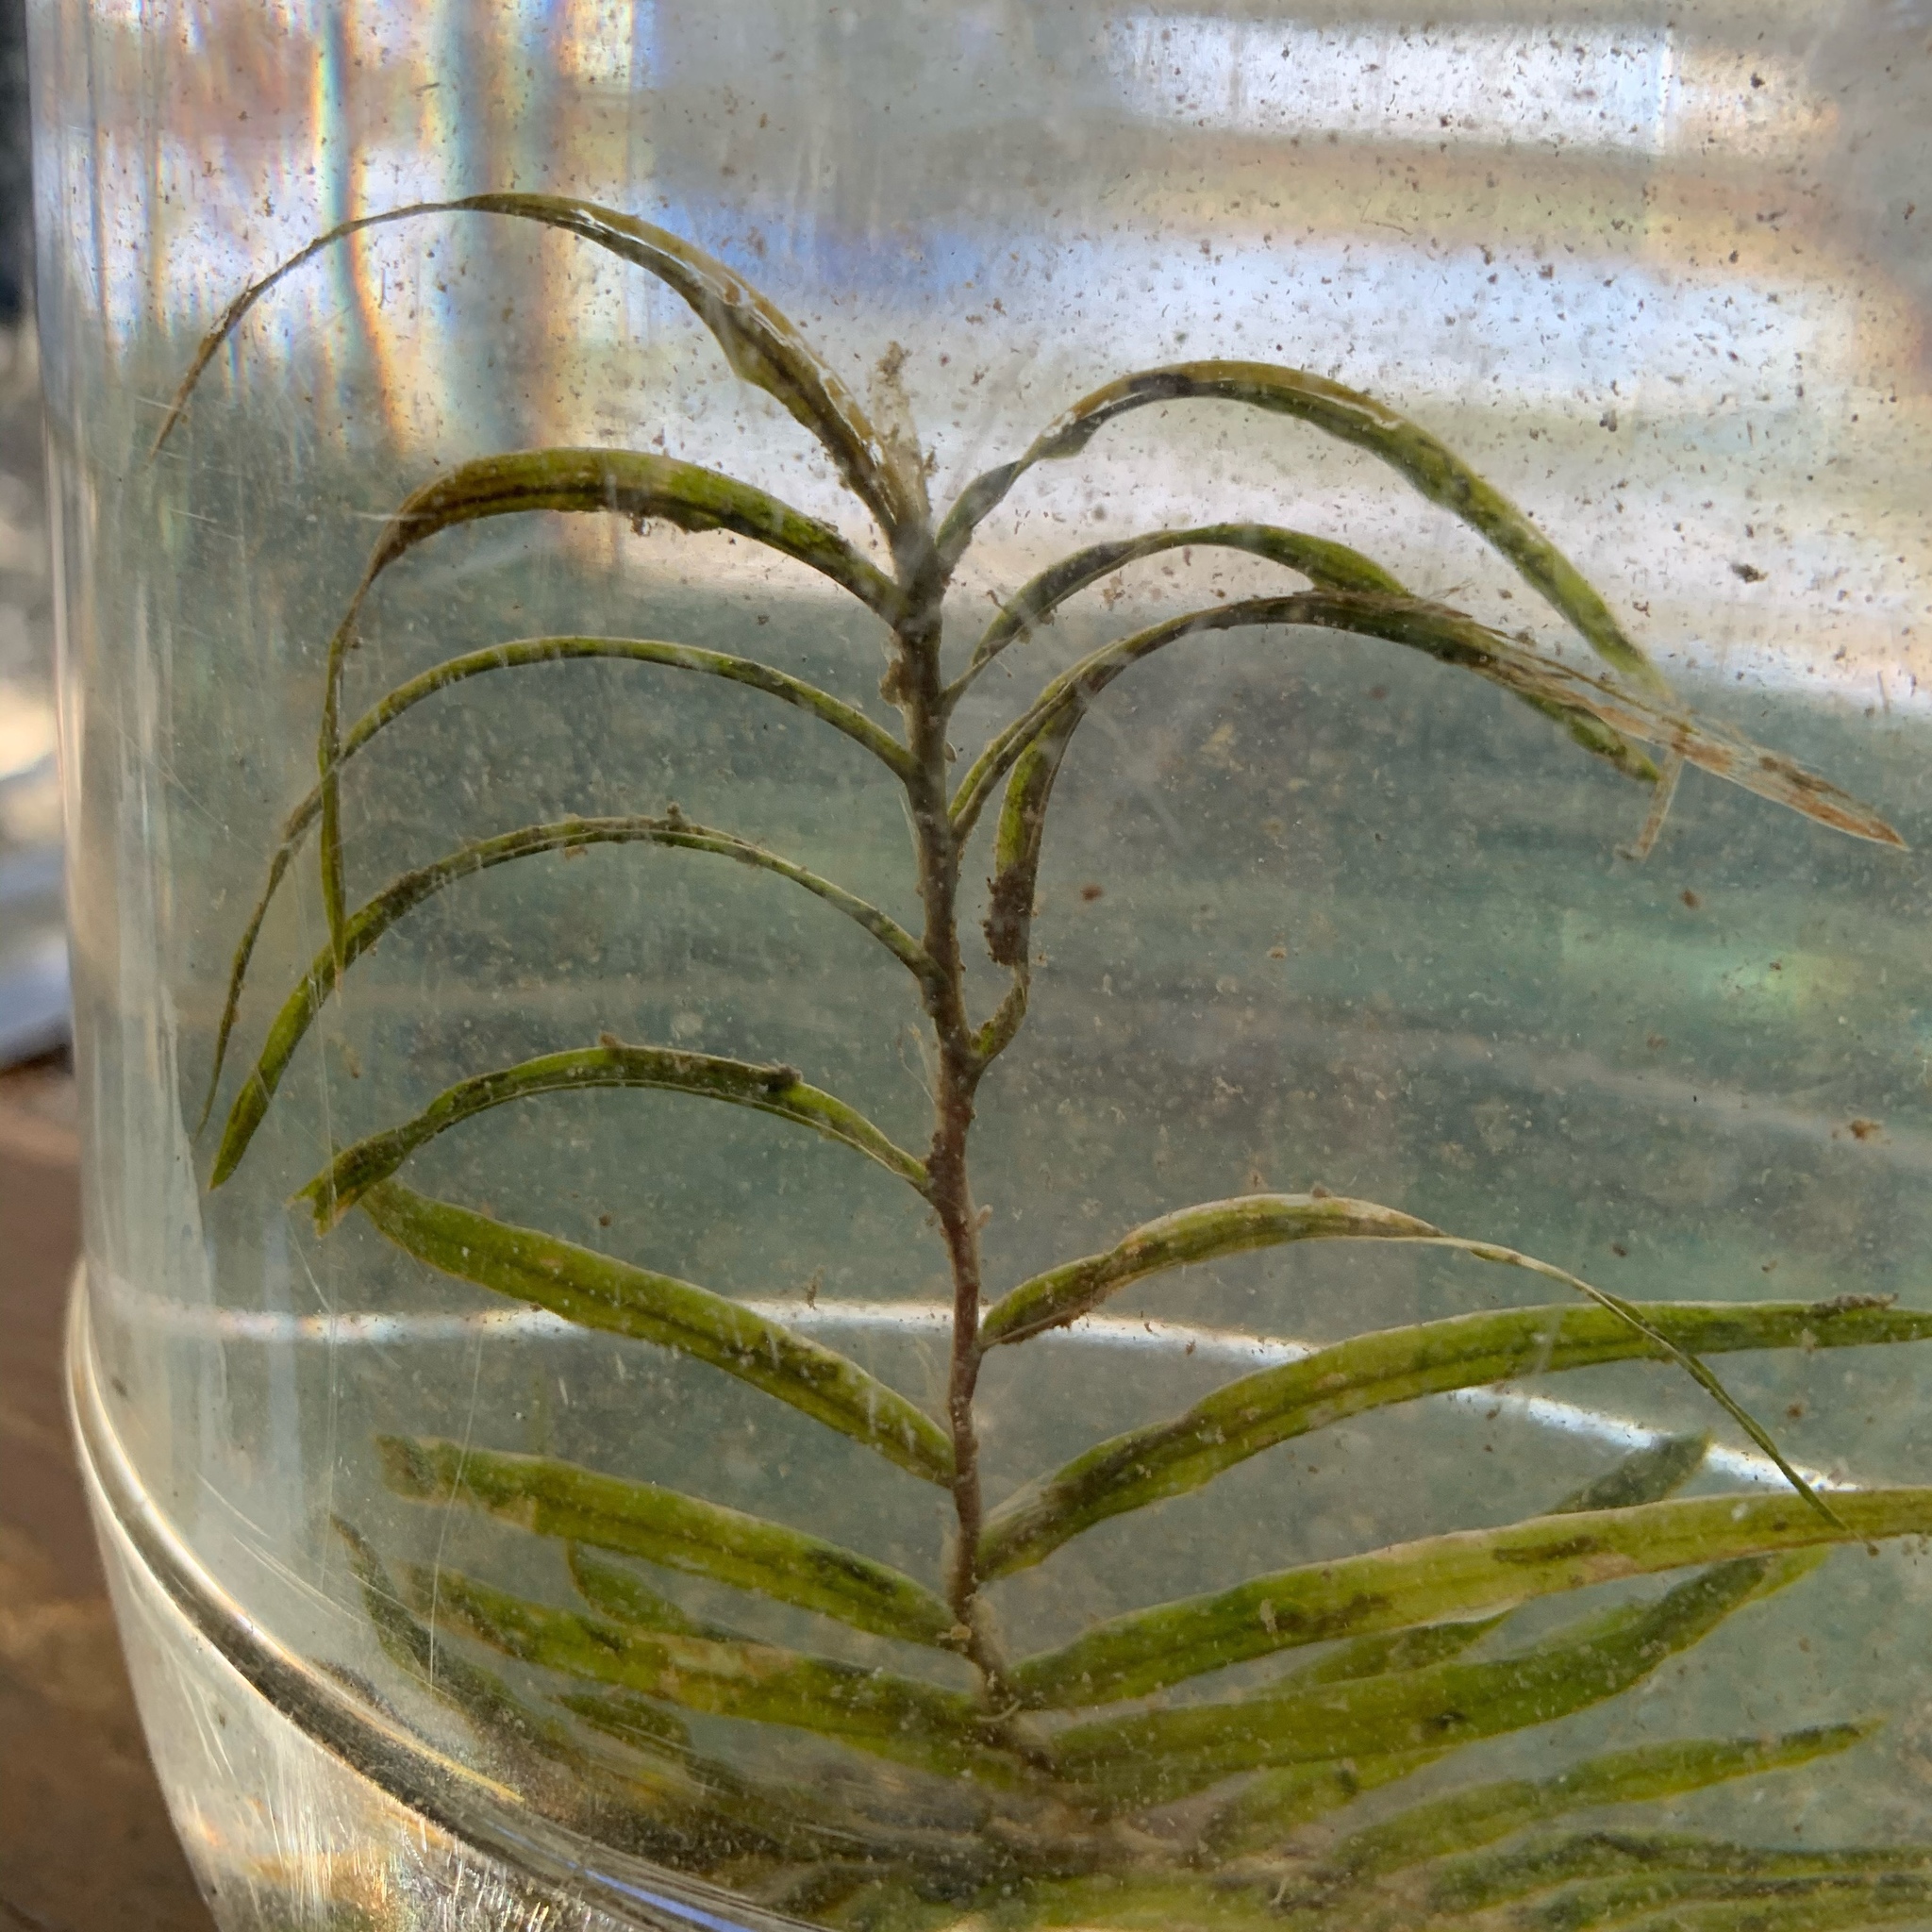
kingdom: Plantae
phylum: Tracheophyta
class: Liliopsida
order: Alismatales
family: Potamogetonaceae
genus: Potamogeton
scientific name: Potamogeton richardsonii
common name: Richardson's pondweed
